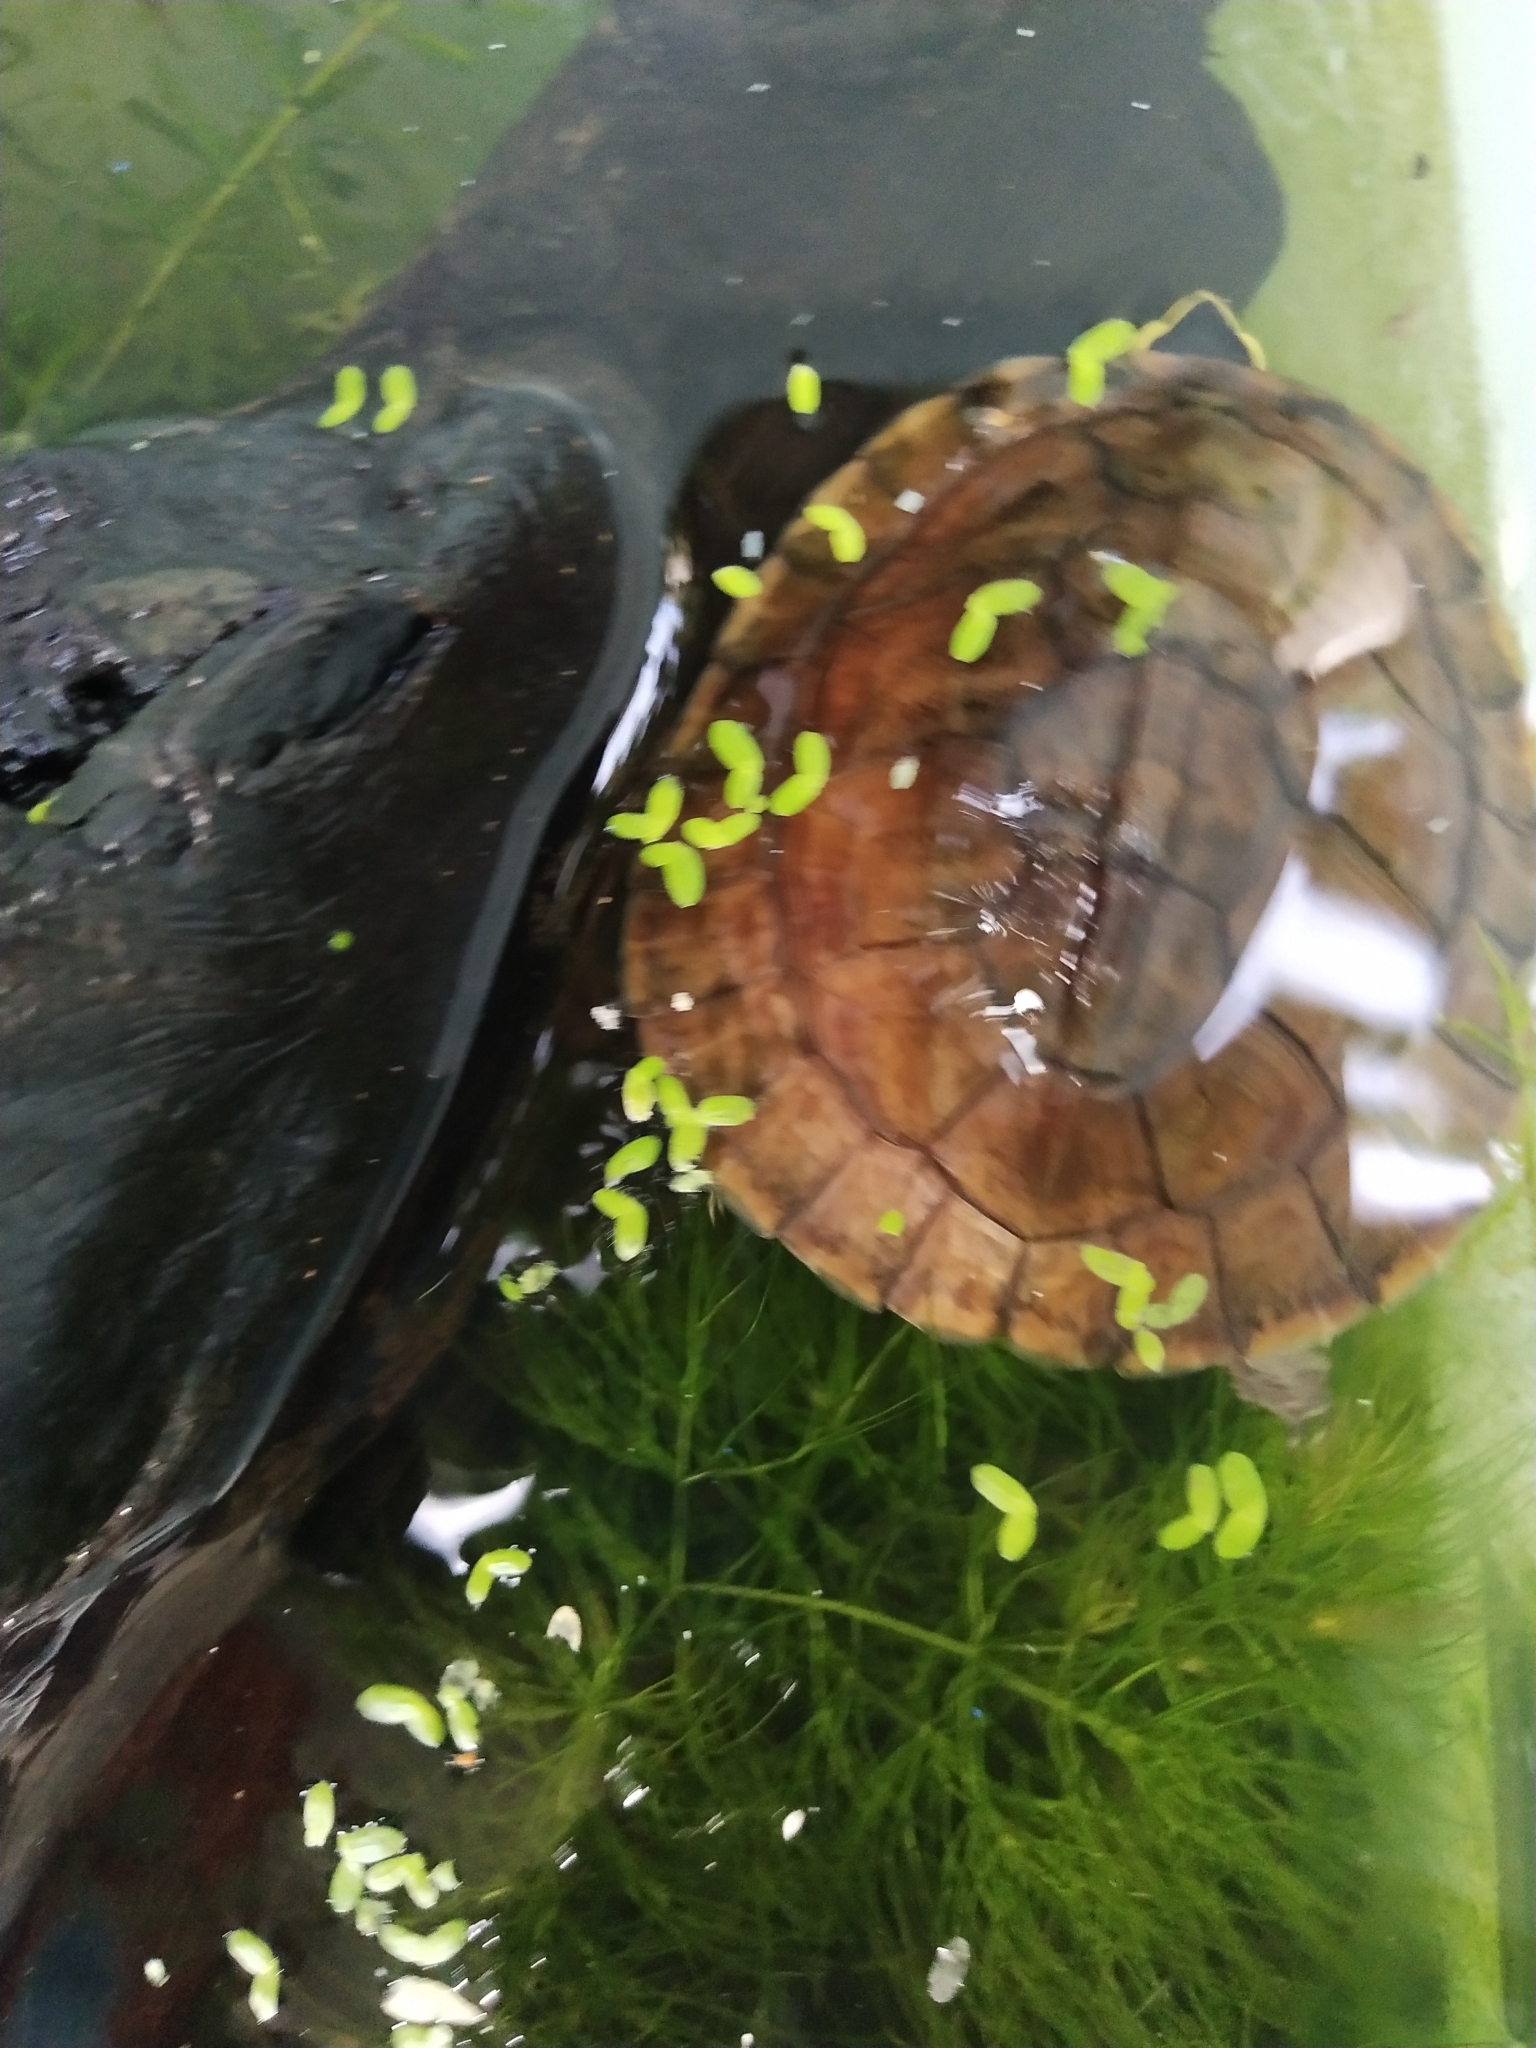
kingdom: Animalia
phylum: Chordata
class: Testudines
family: Geoemydidae
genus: Cuora
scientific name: Cuora
